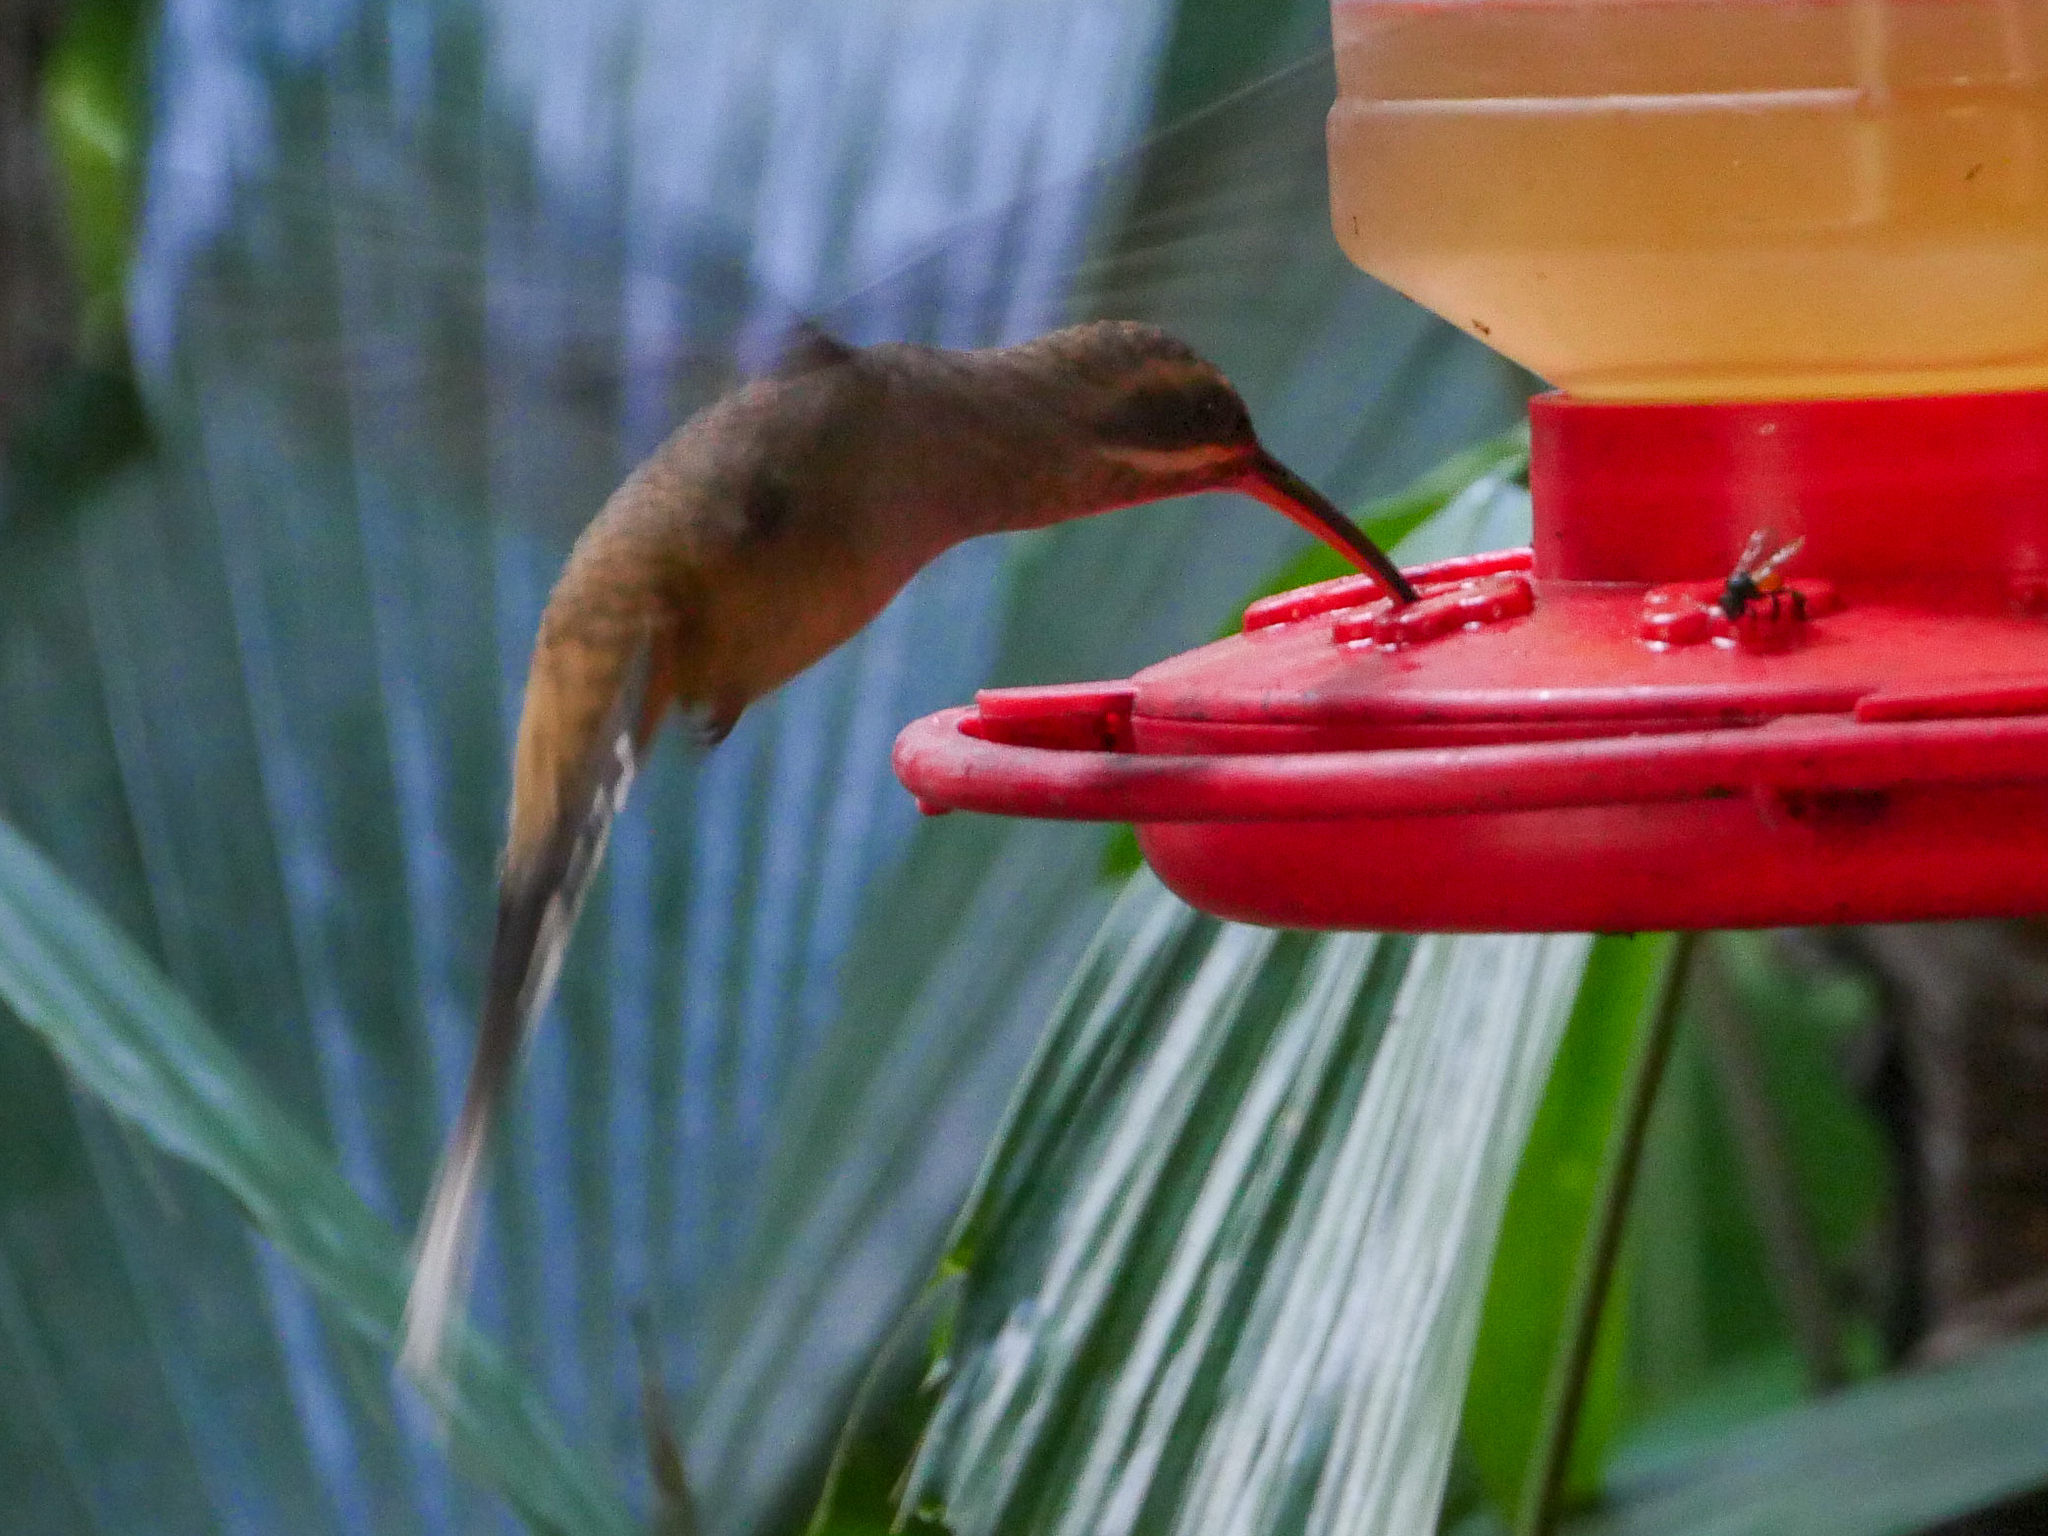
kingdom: Animalia
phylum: Chordata
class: Aves
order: Apodiformes
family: Trochilidae
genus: Phaethornis
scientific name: Phaethornis longirostris
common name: Long-billed hermit
